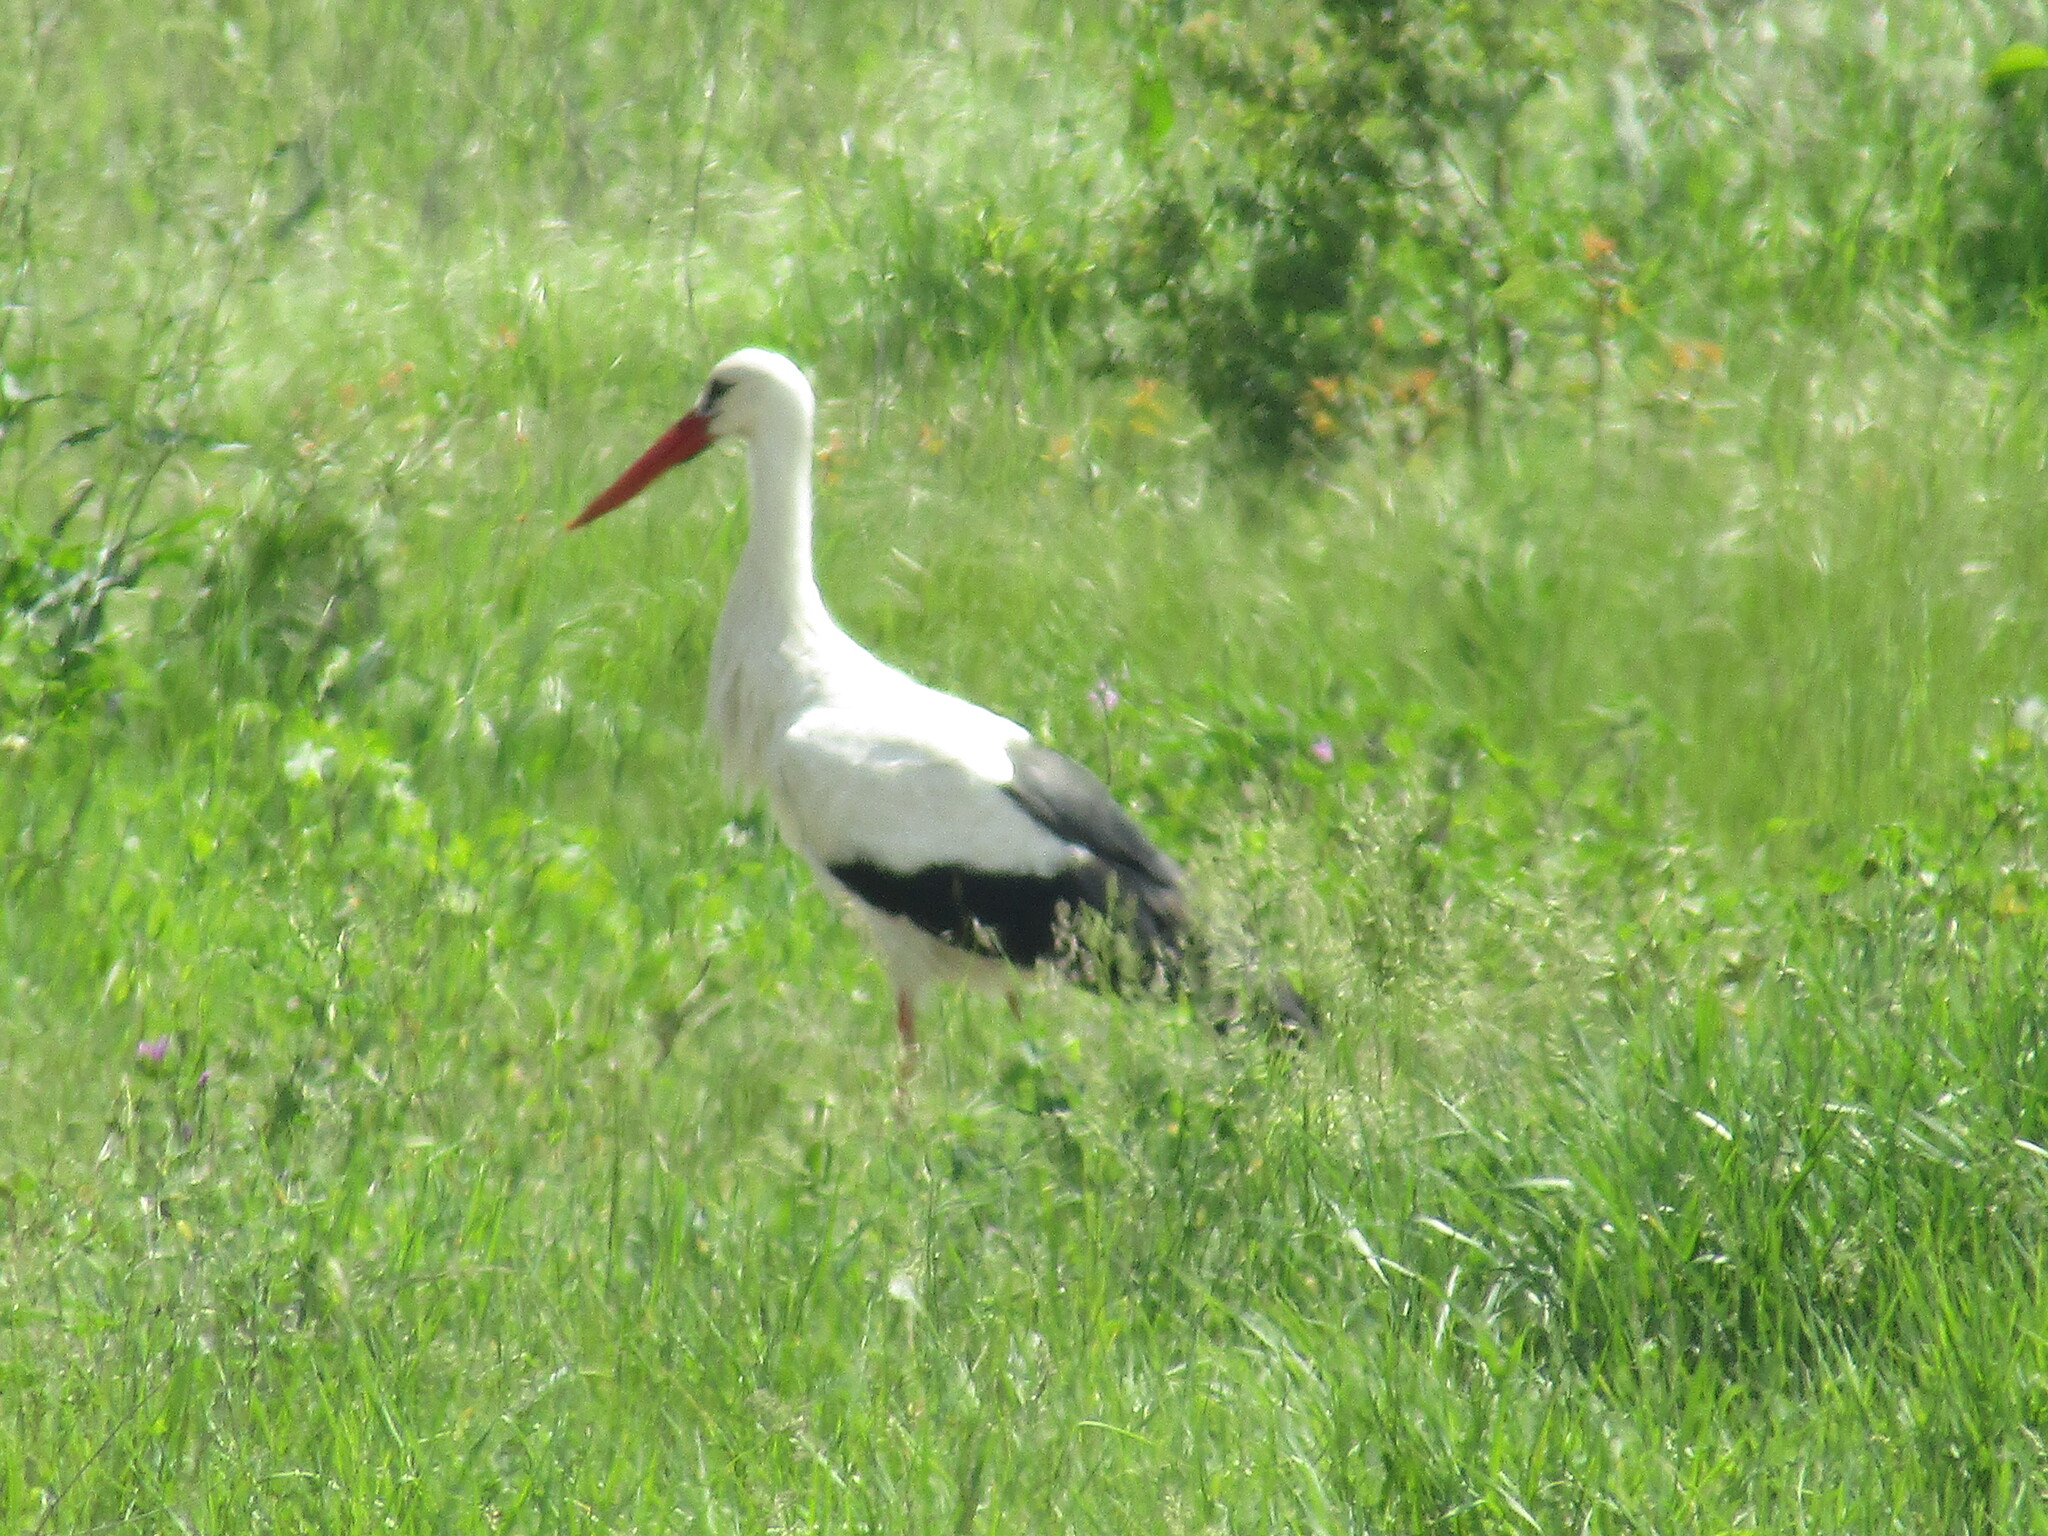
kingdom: Animalia
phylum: Chordata
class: Aves
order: Ciconiiformes
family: Ciconiidae
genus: Ciconia
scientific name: Ciconia ciconia
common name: White stork
